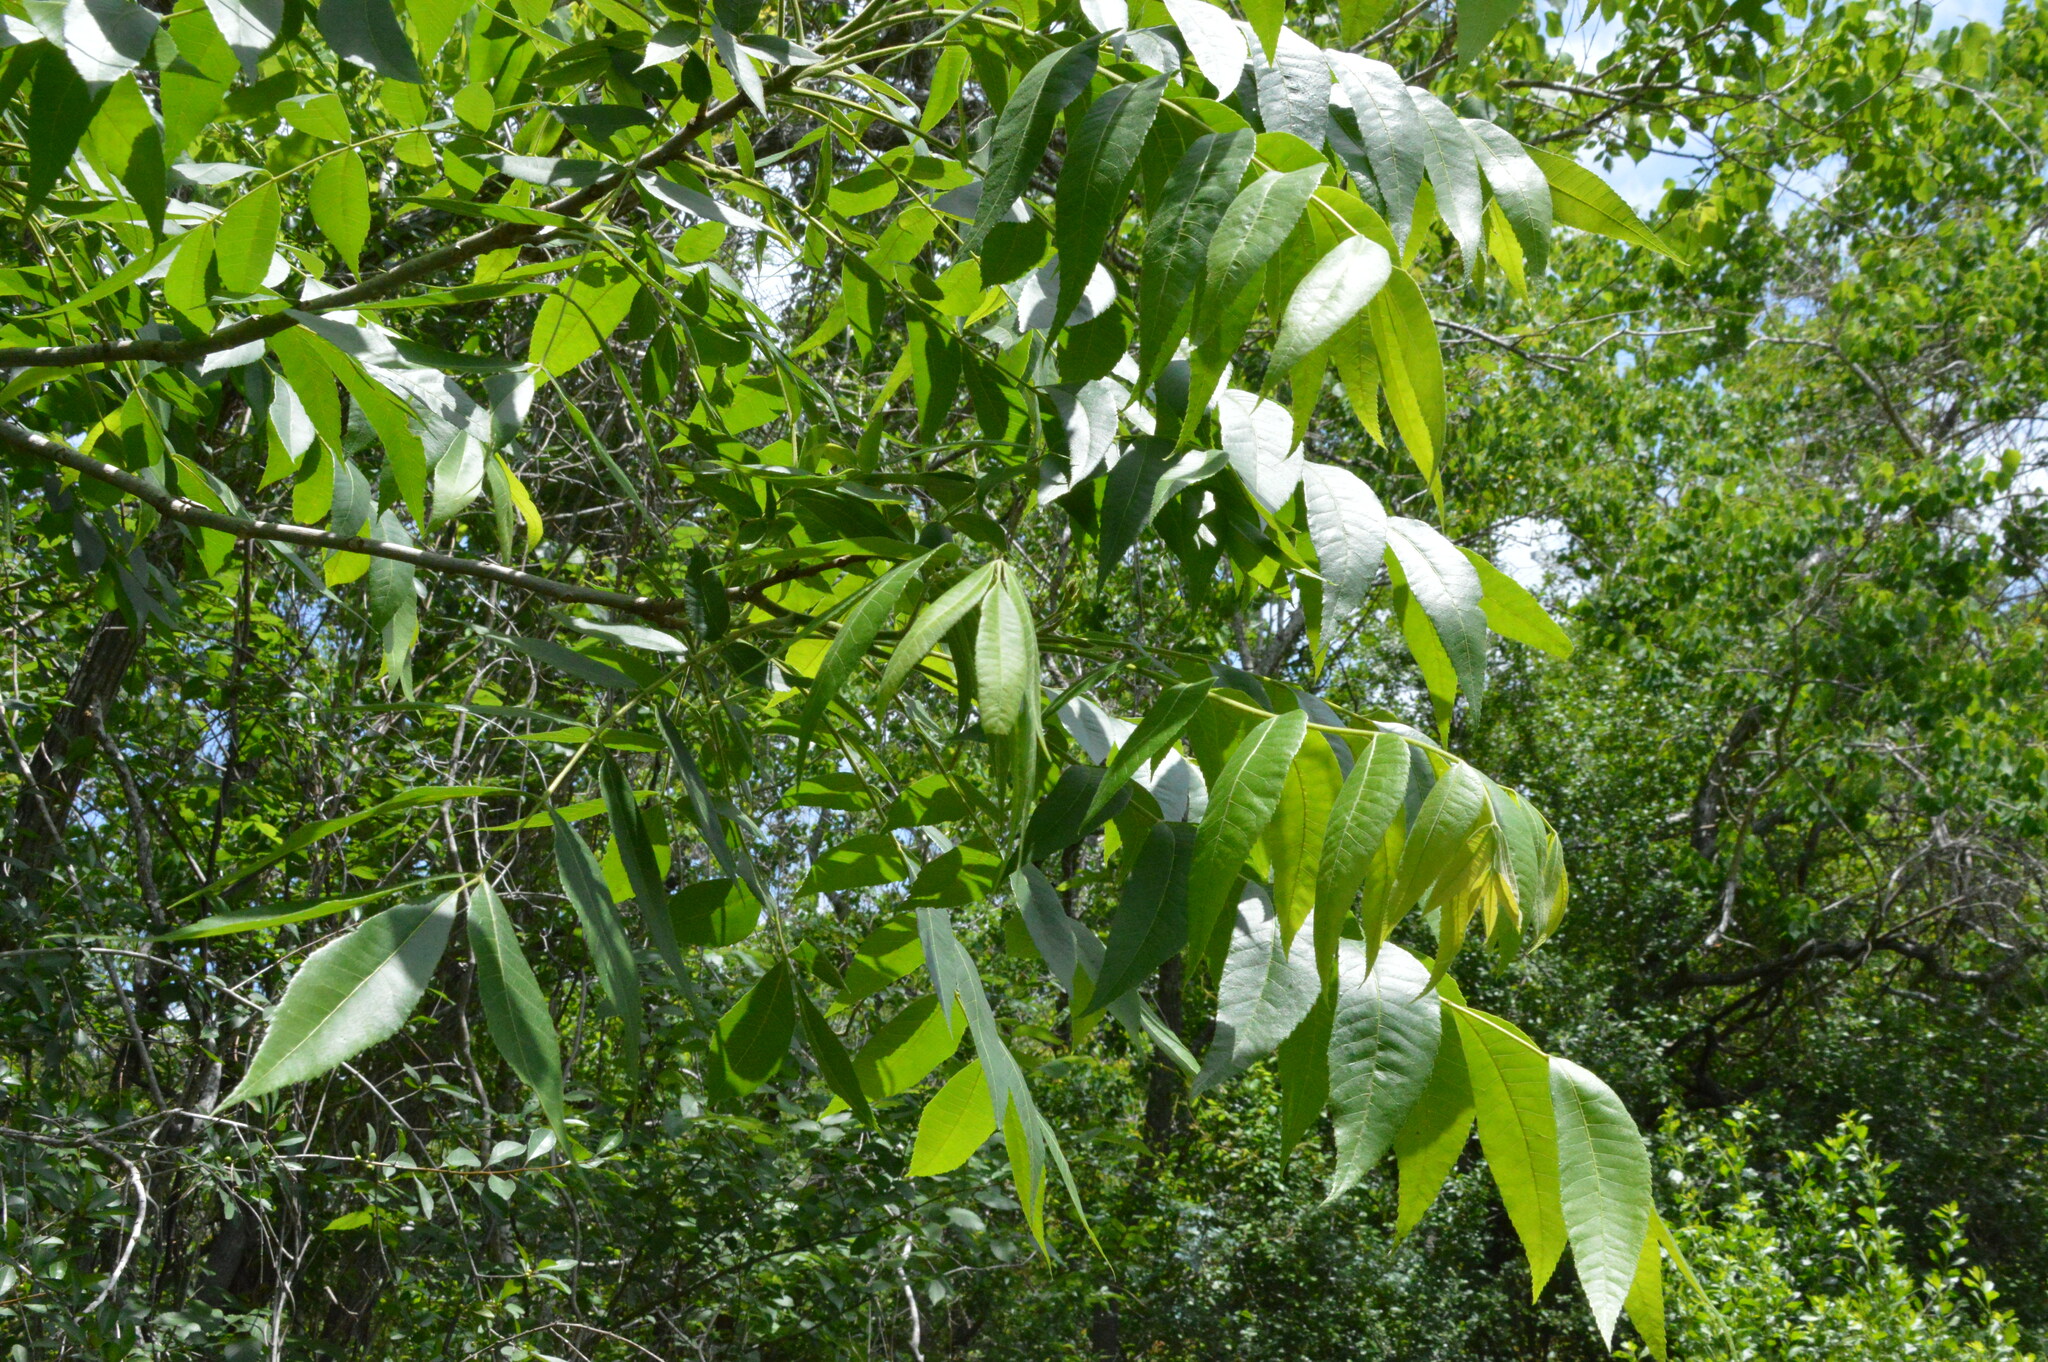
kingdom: Plantae
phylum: Tracheophyta
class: Magnoliopsida
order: Fagales
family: Juglandaceae
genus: Carya
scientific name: Carya illinoinensis
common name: Pecan
